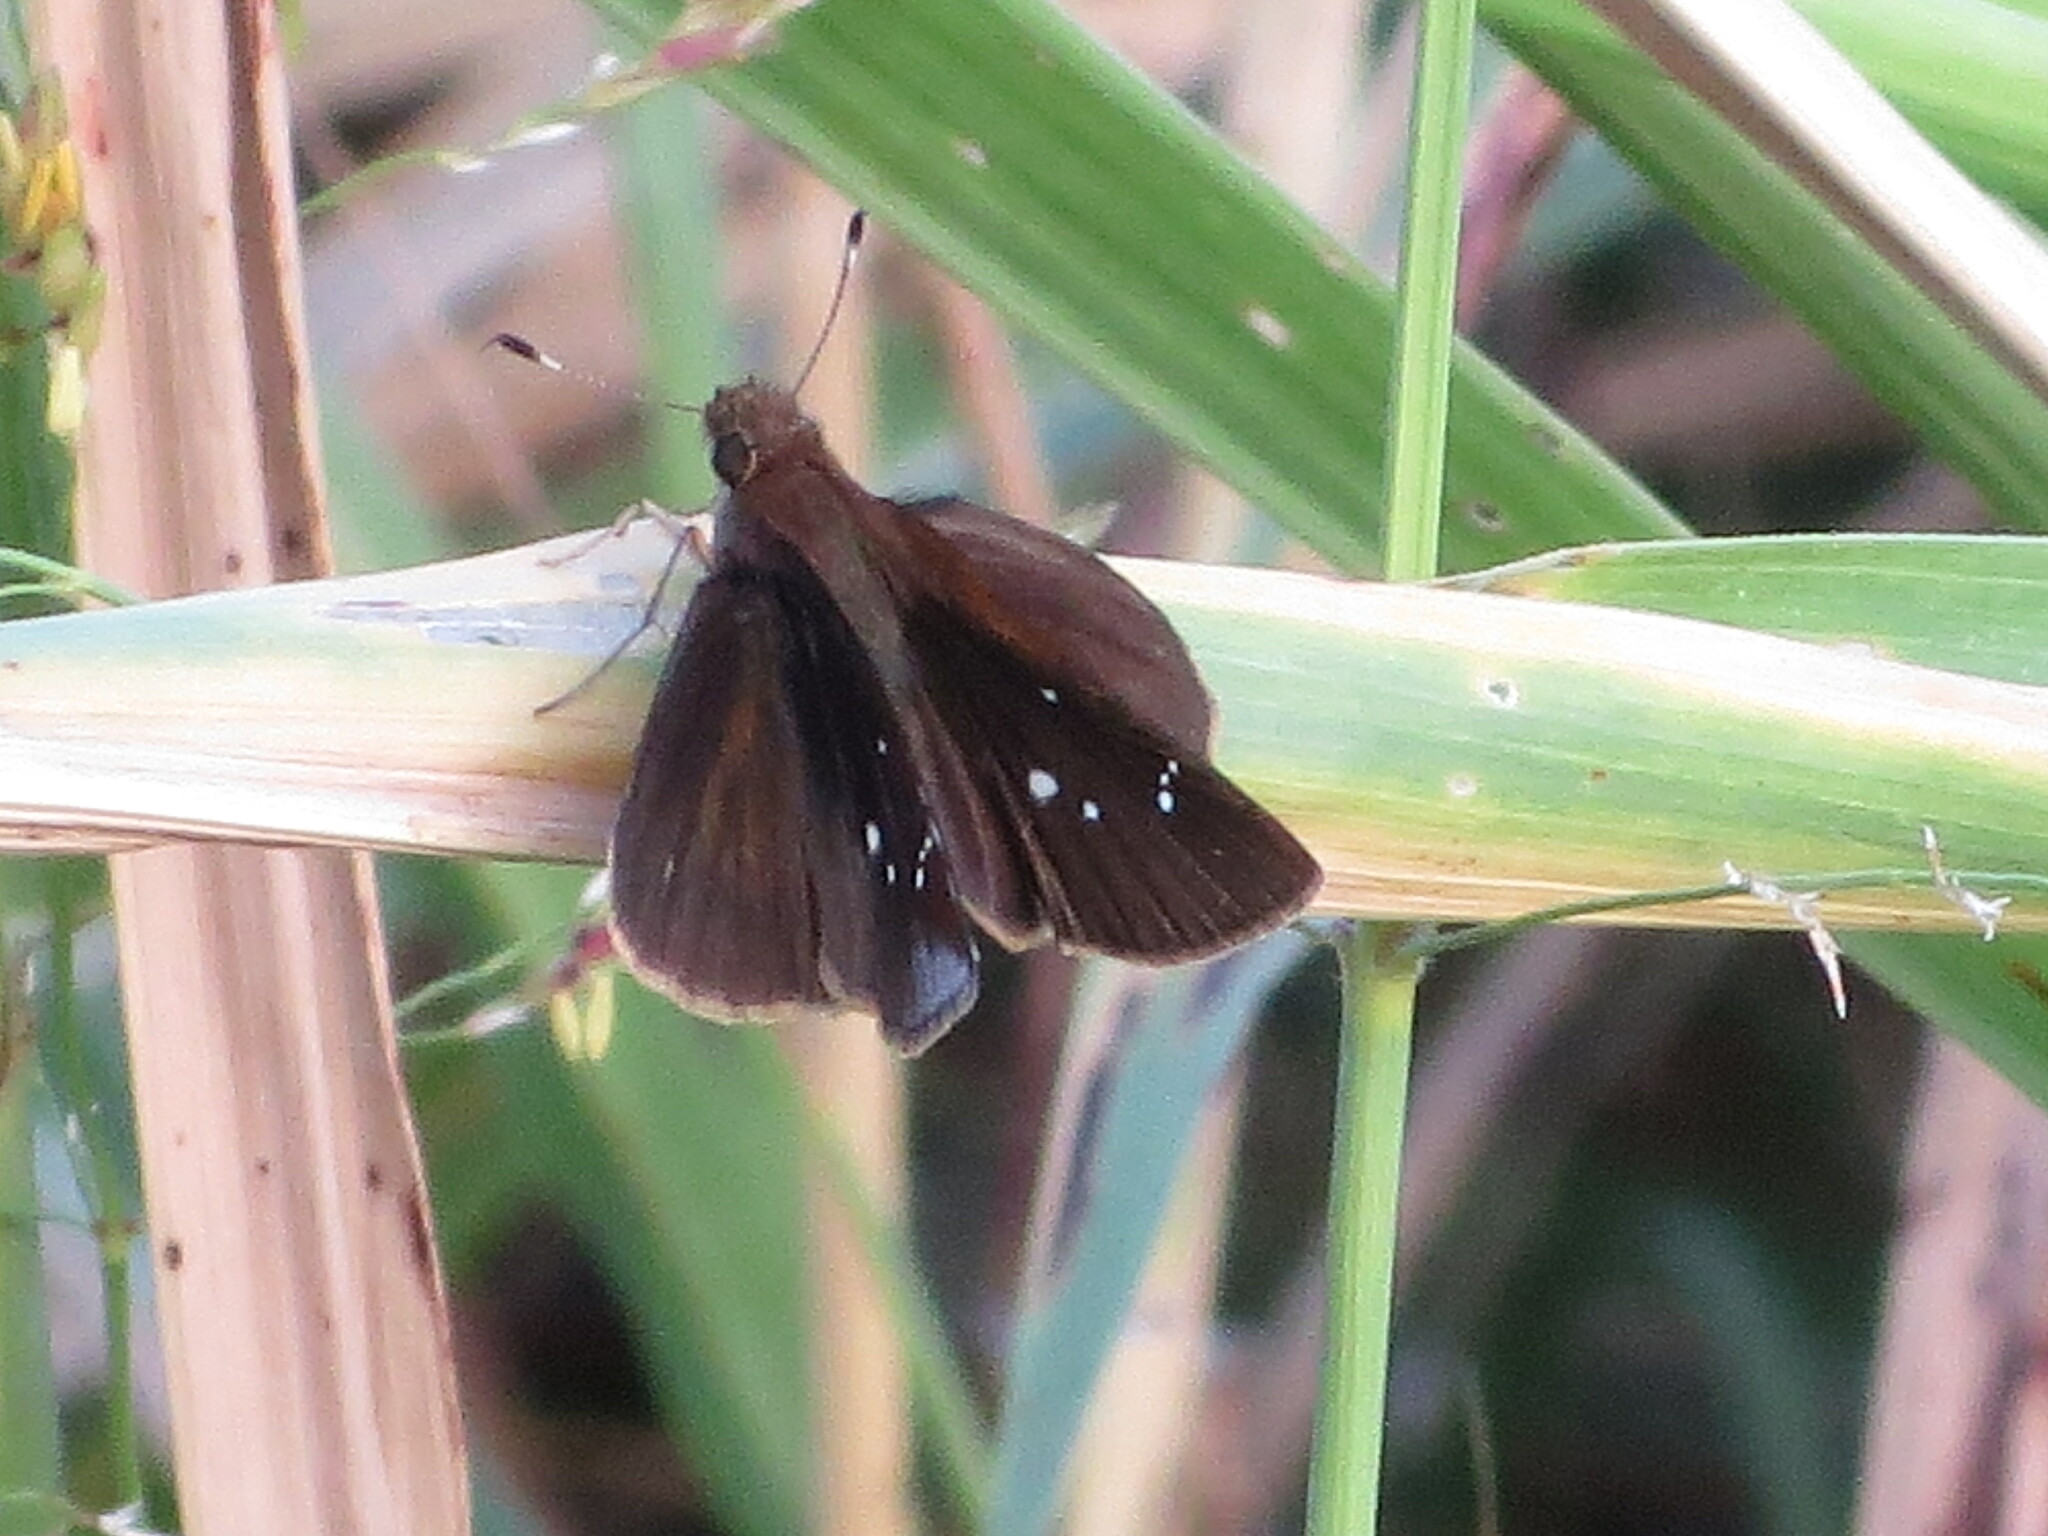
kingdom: Animalia
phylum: Arthropoda
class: Insecta
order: Lepidoptera
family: Hesperiidae
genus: Lerema
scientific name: Lerema accius
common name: Clouded skipper
